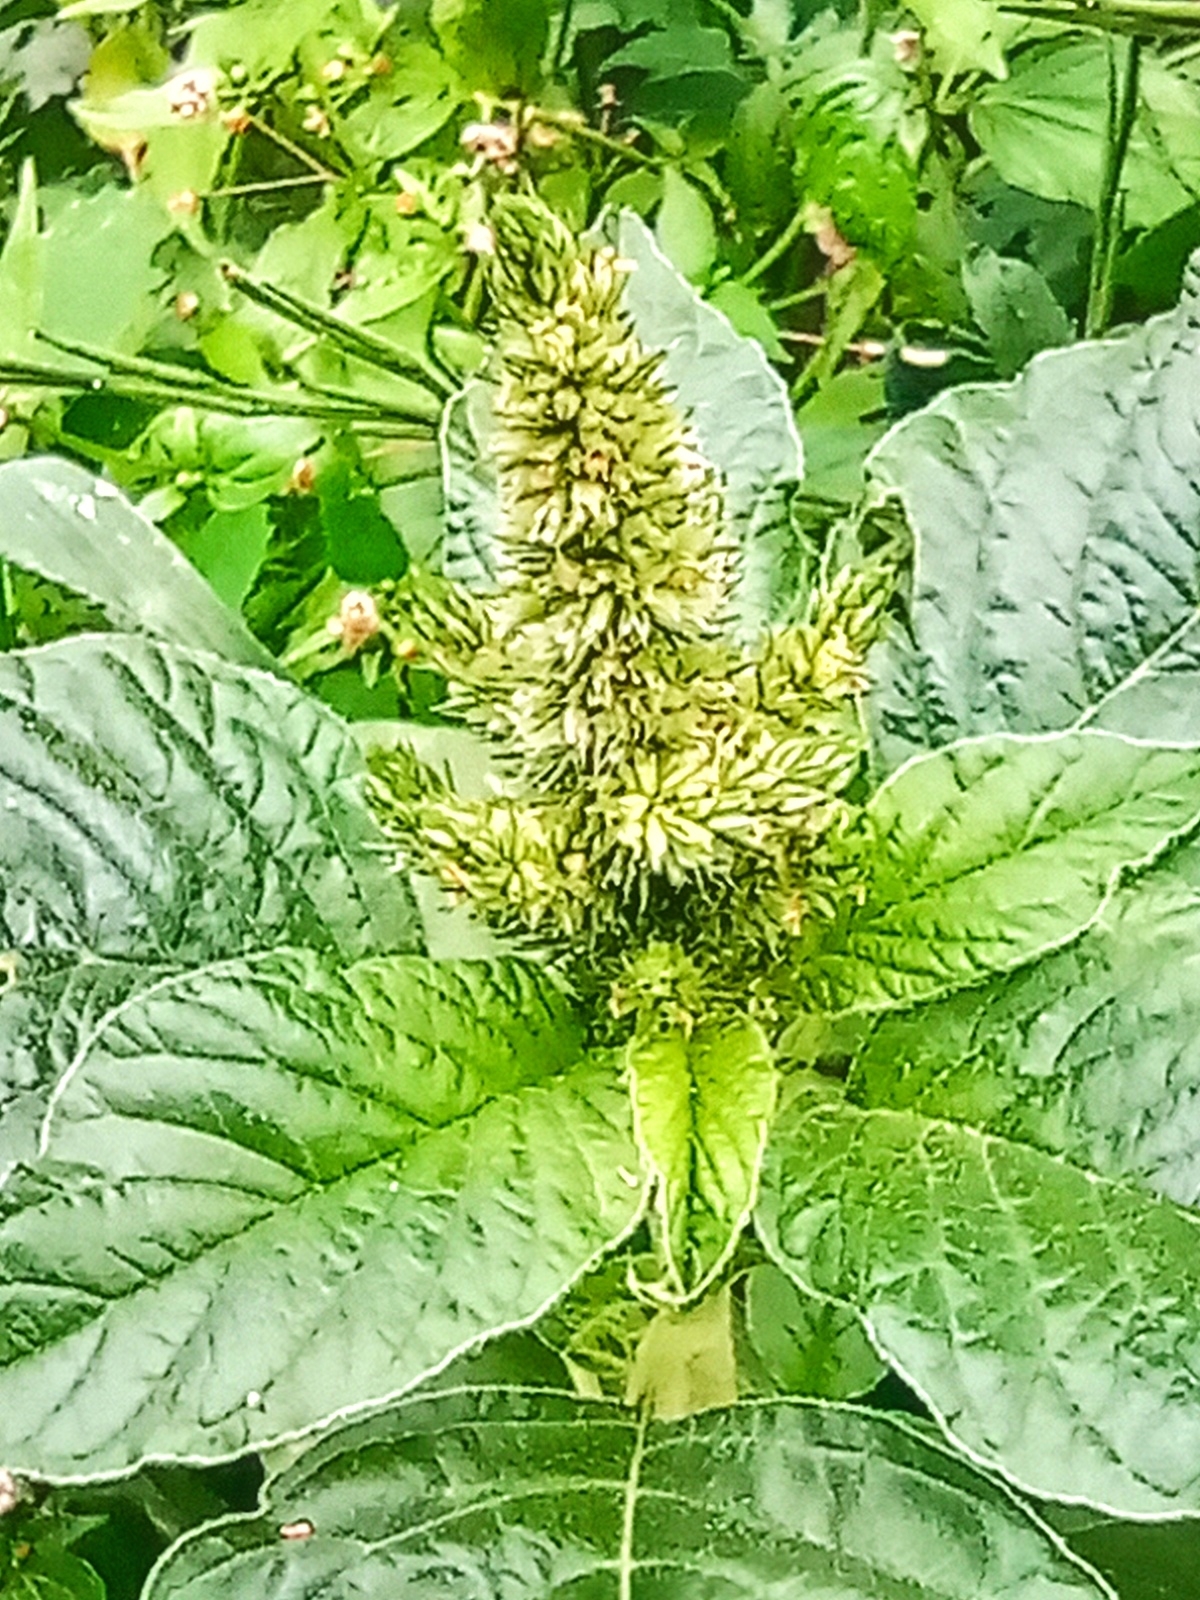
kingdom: Plantae
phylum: Tracheophyta
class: Magnoliopsida
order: Caryophyllales
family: Amaranthaceae
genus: Amaranthus
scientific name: Amaranthus retroflexus
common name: Redroot amaranth
